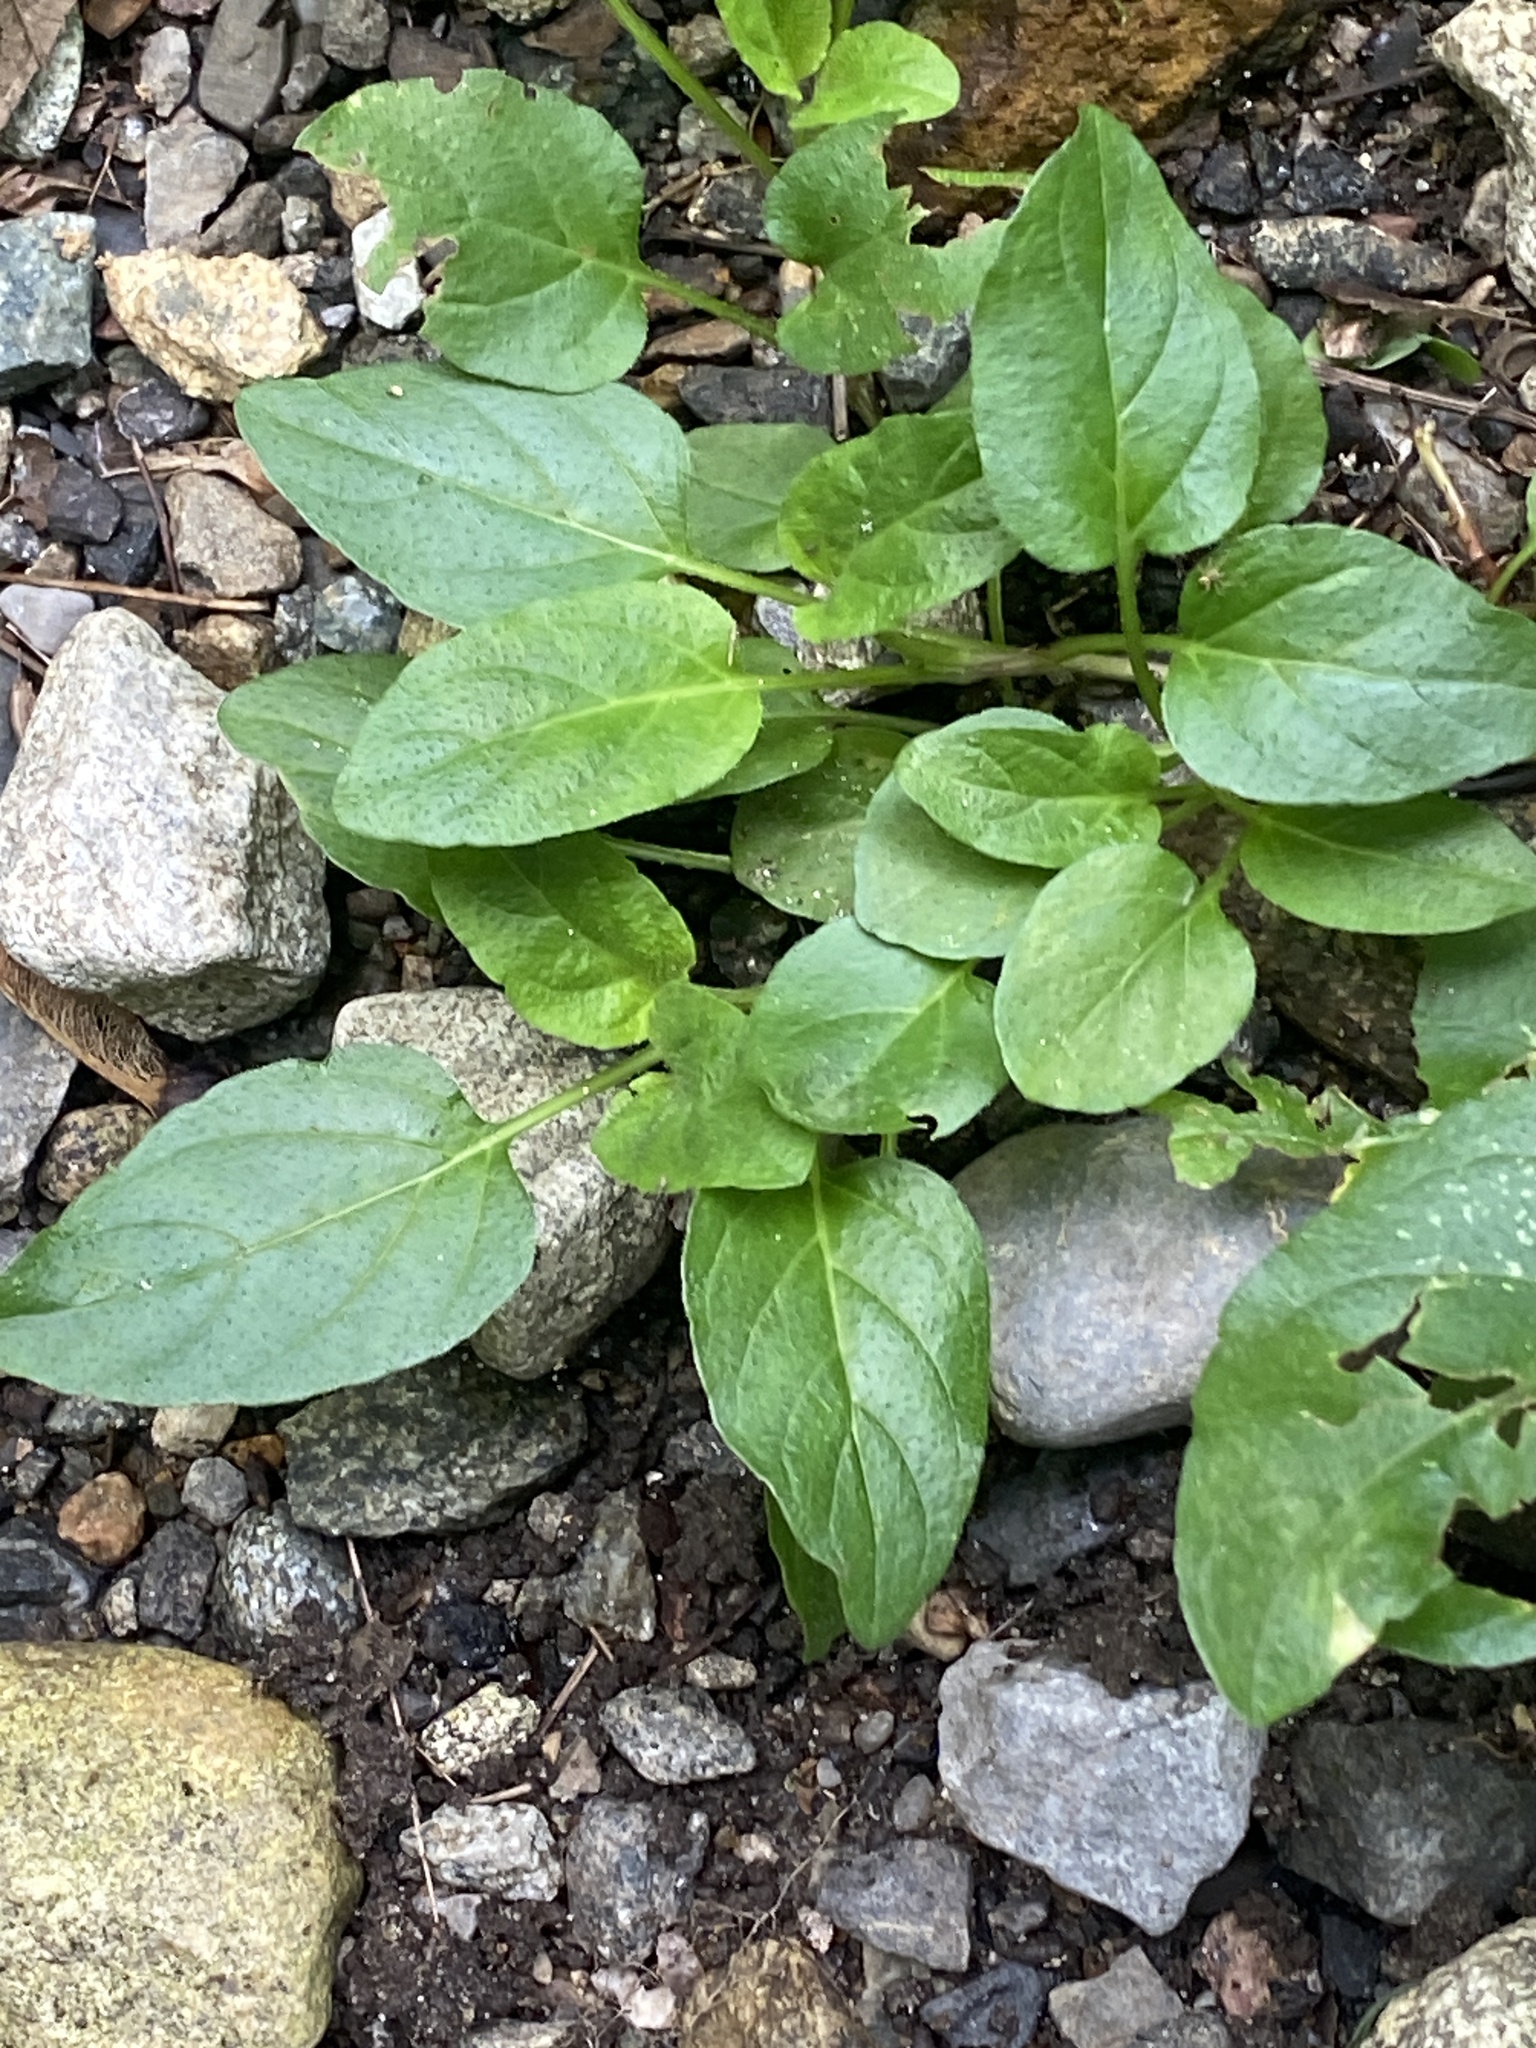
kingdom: Plantae
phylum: Tracheophyta
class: Magnoliopsida
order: Lamiales
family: Lamiaceae
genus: Prunella
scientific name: Prunella vulgaris
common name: Heal-all
